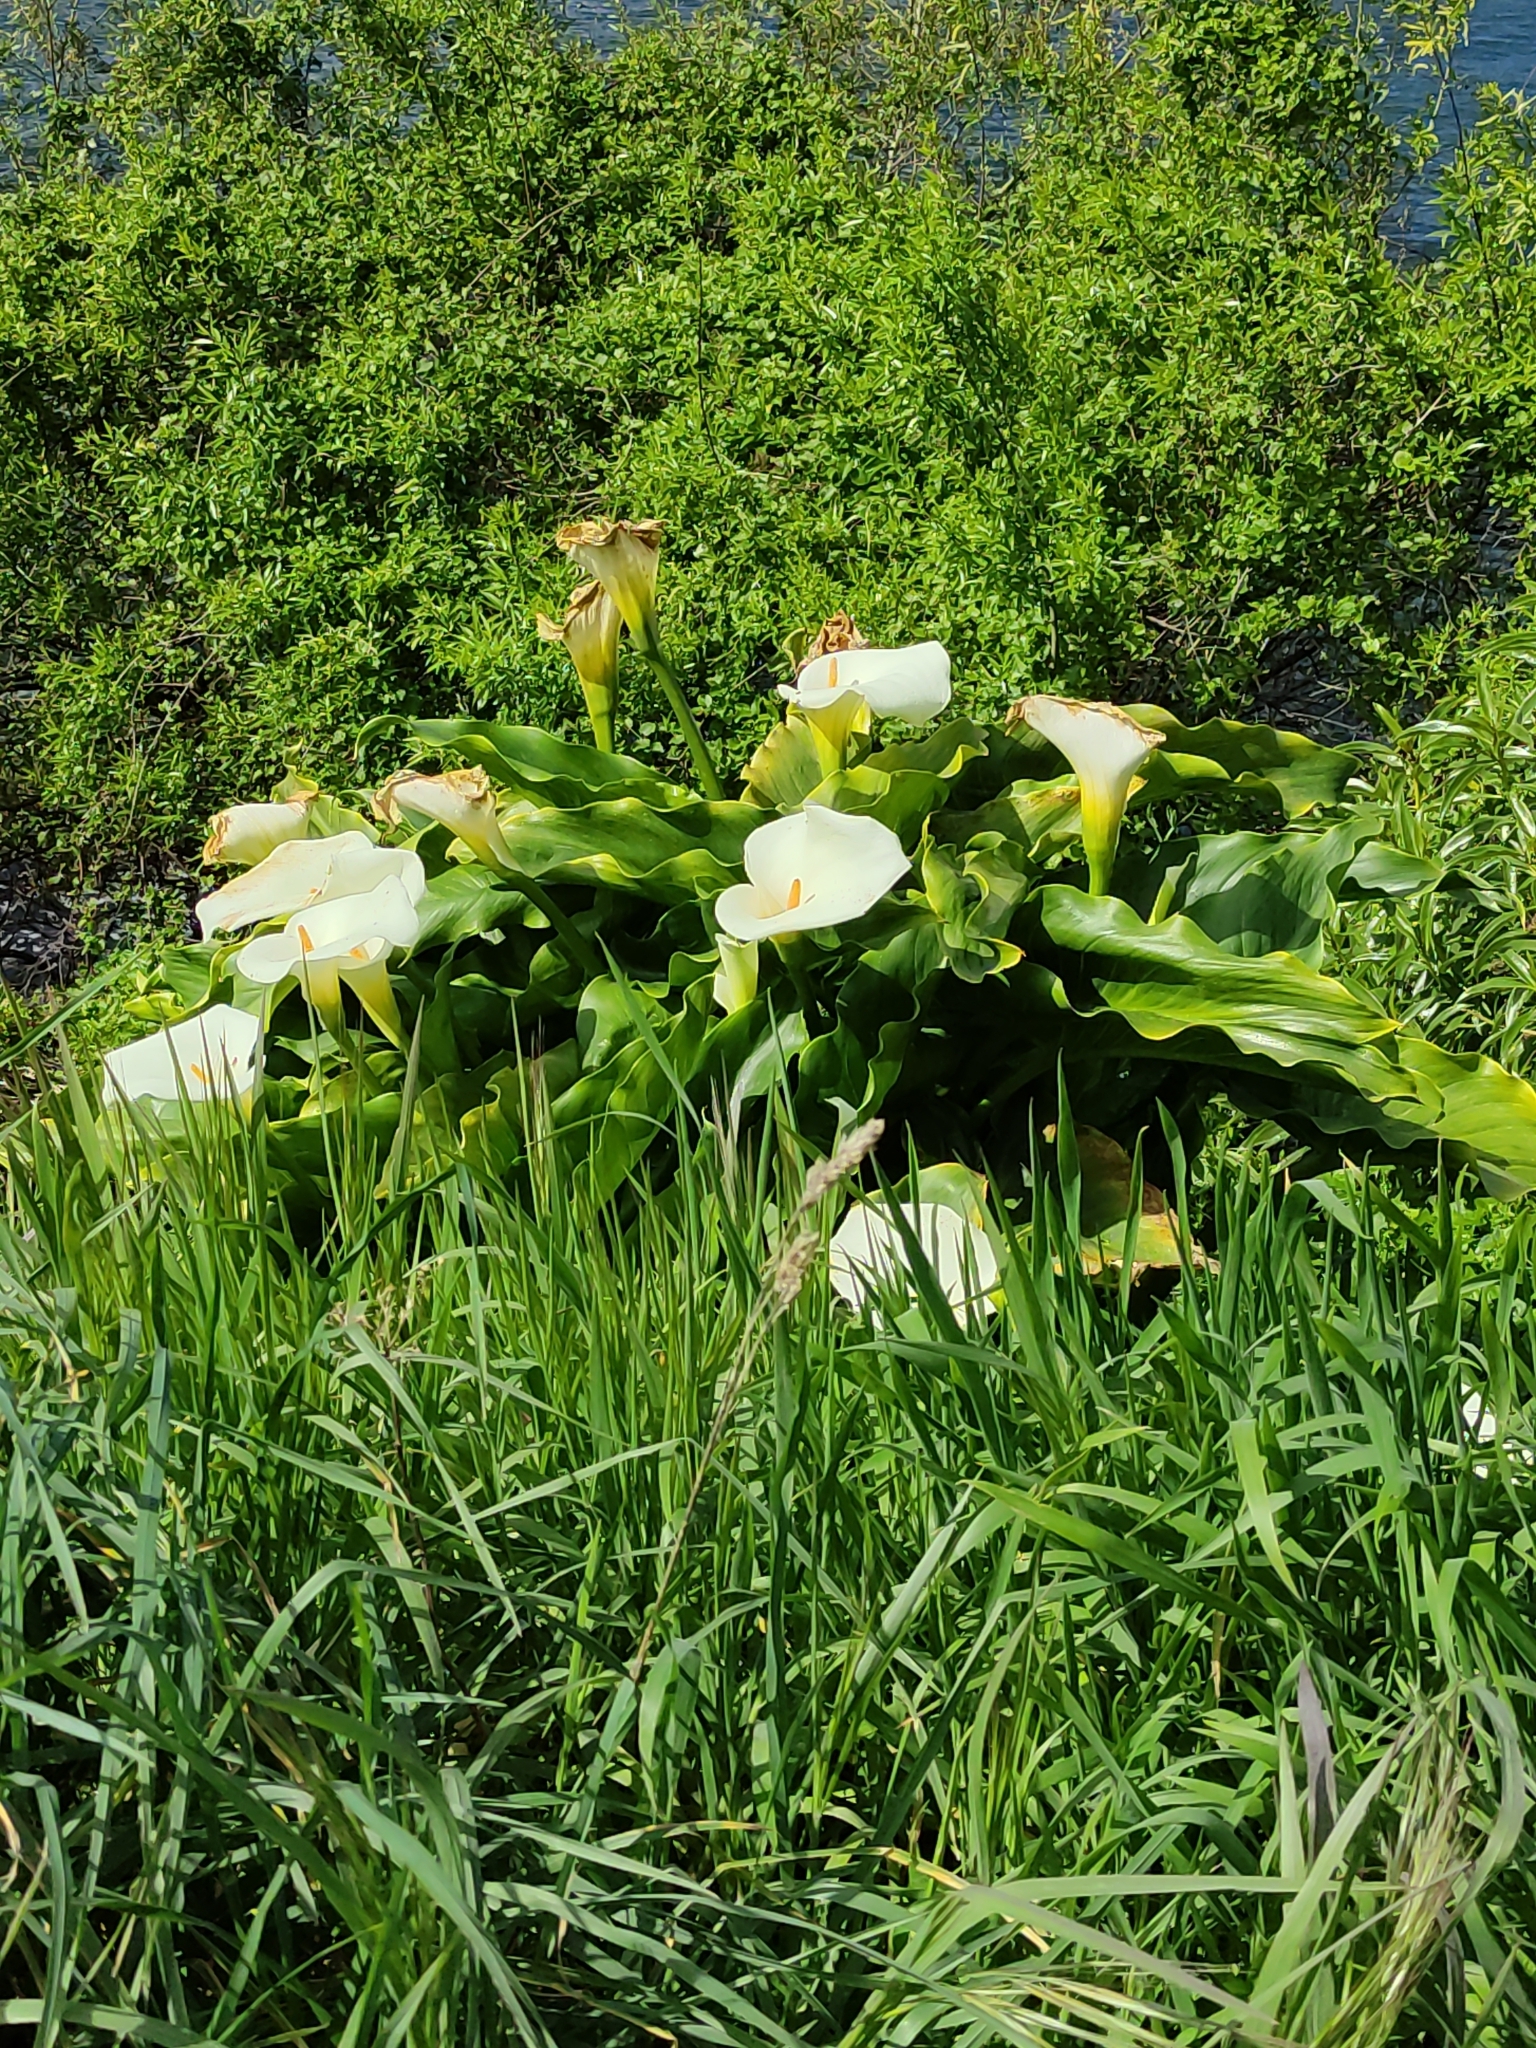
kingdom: Plantae
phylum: Tracheophyta
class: Liliopsida
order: Alismatales
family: Araceae
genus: Zantedeschia
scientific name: Zantedeschia aethiopica
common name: Altar-lily
